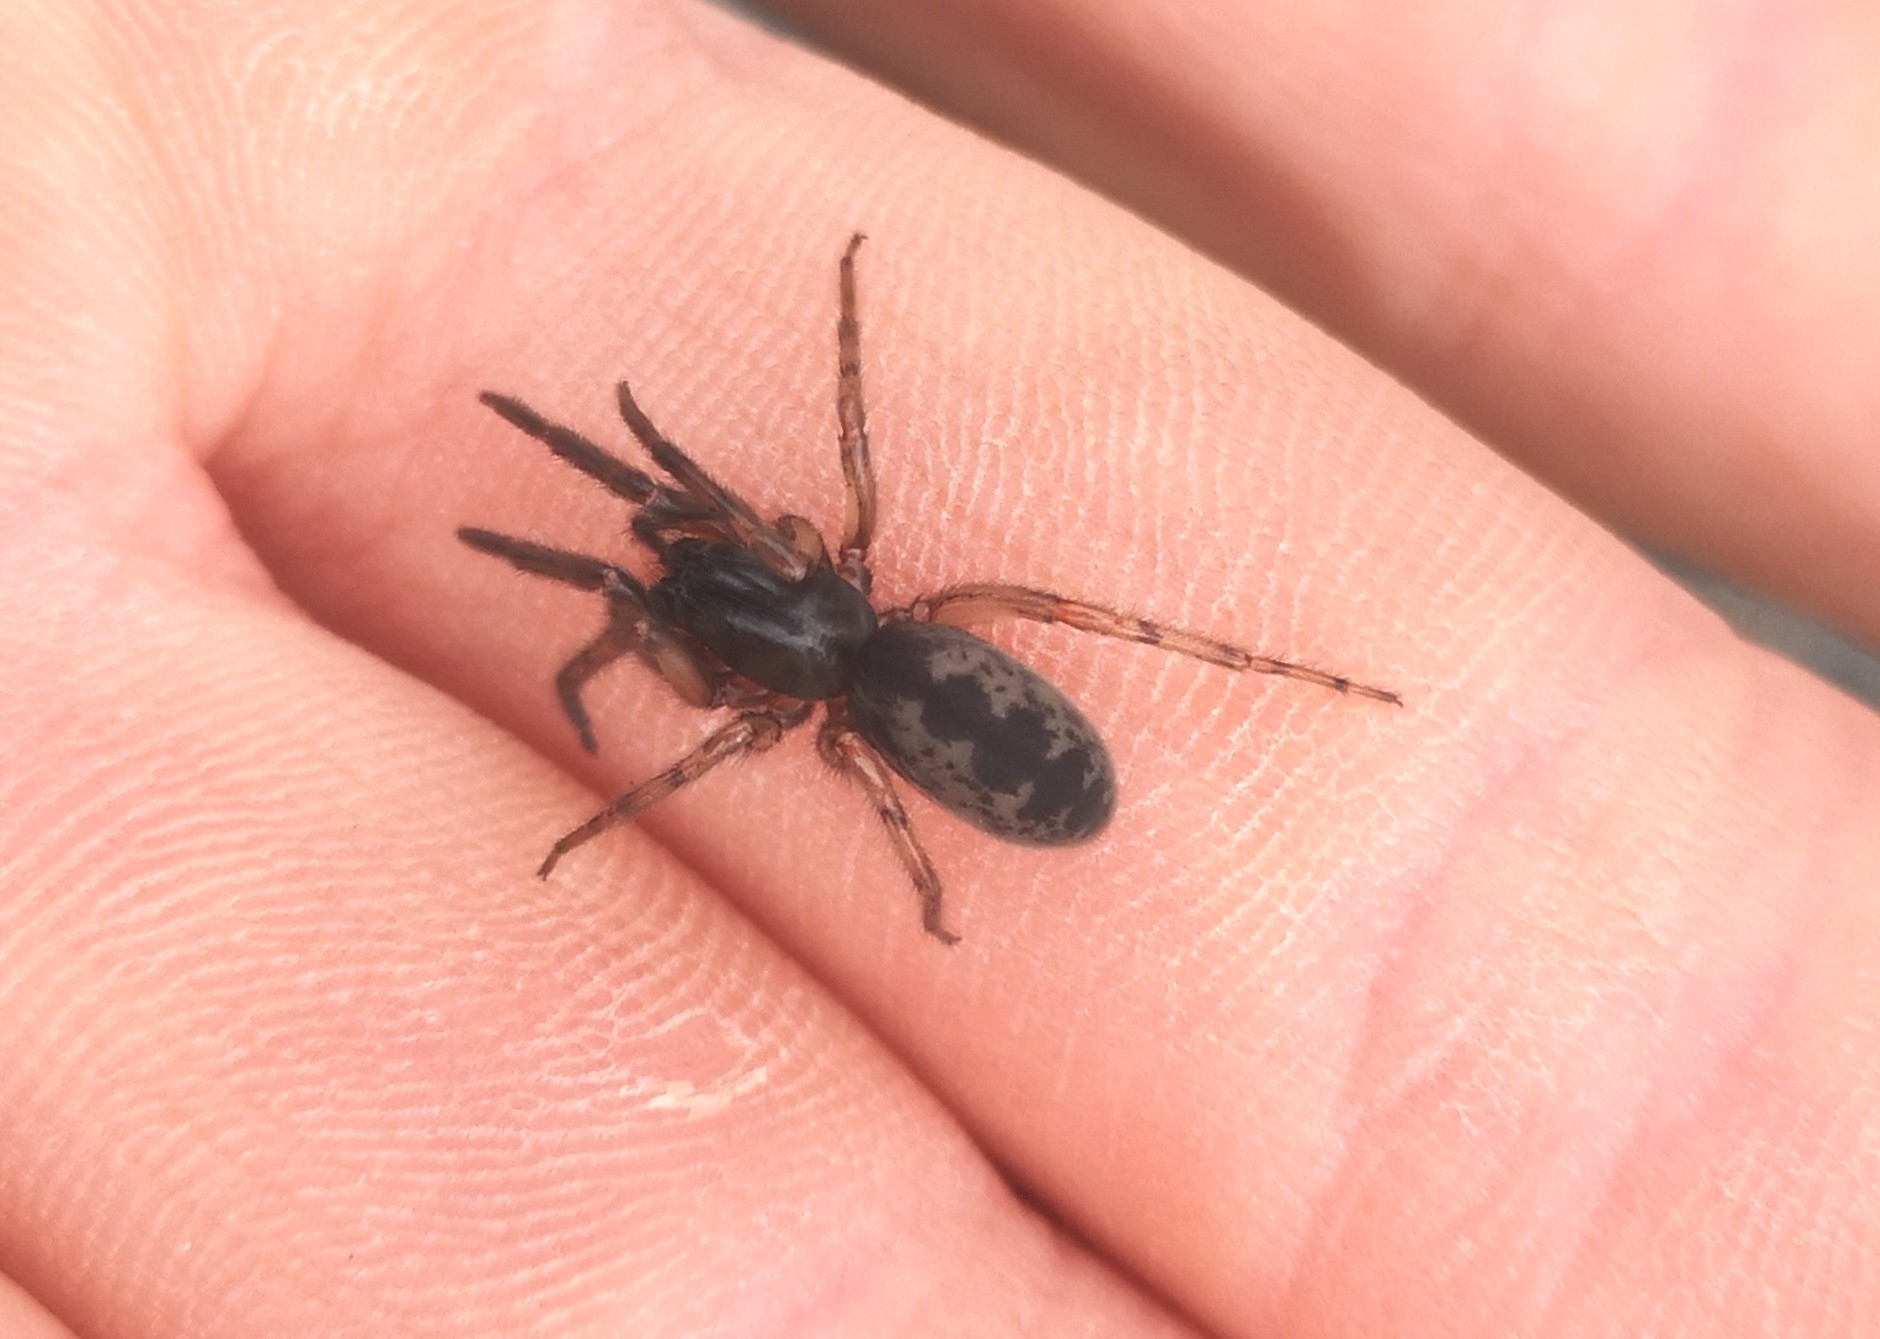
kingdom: Animalia
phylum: Arthropoda
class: Arachnida
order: Araneae
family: Segestriidae
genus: Segestria
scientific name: Segestria senoculata
